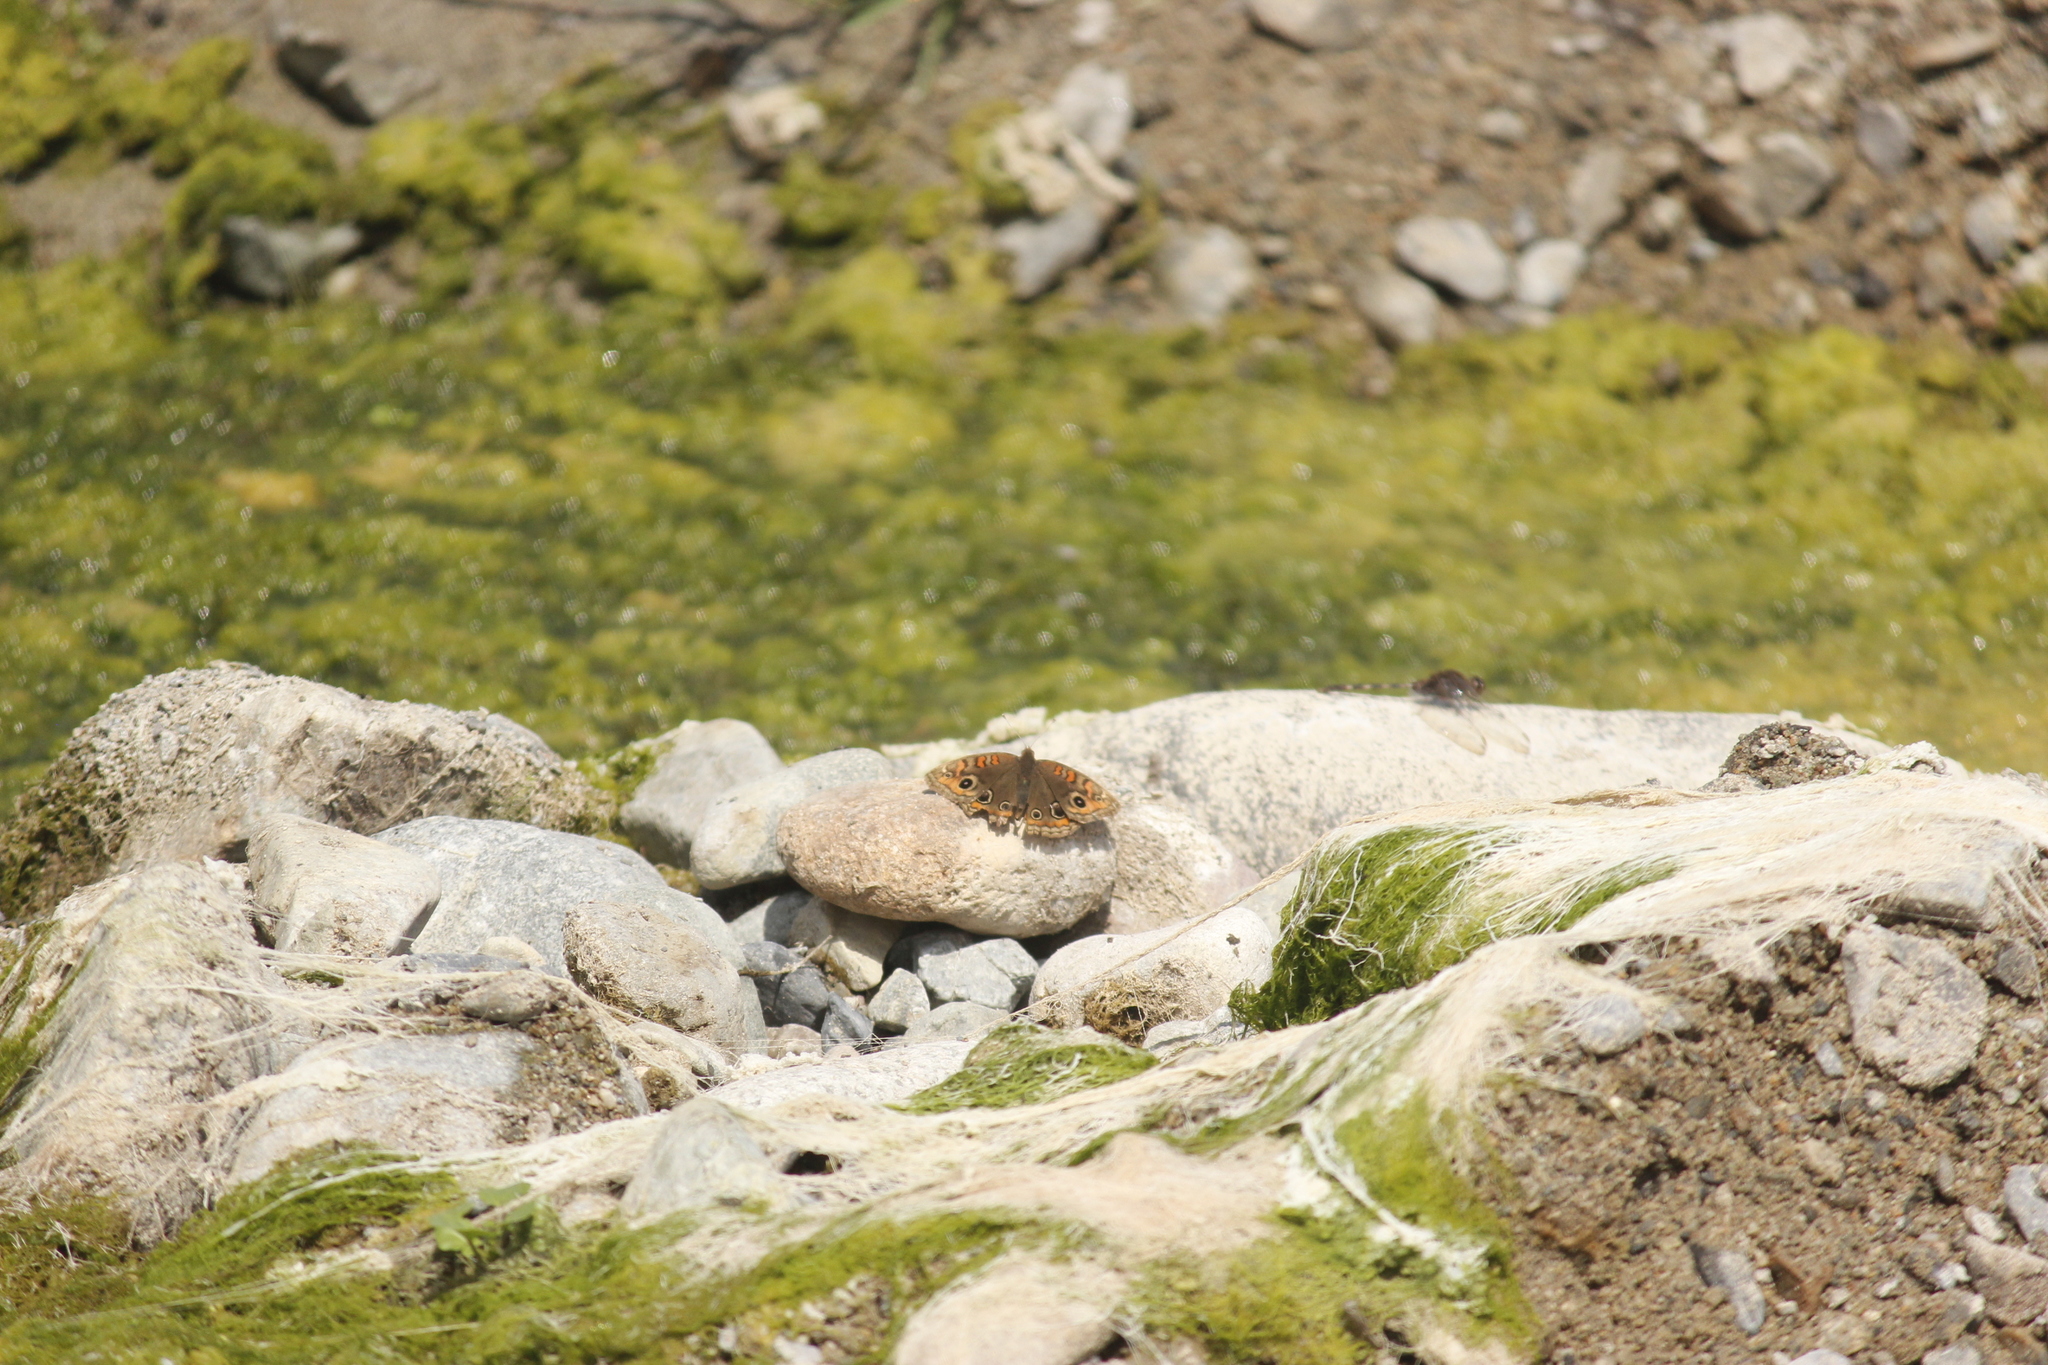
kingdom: Animalia
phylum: Arthropoda
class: Insecta
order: Lepidoptera
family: Nymphalidae
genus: Junonia
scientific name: Junonia lavinia
